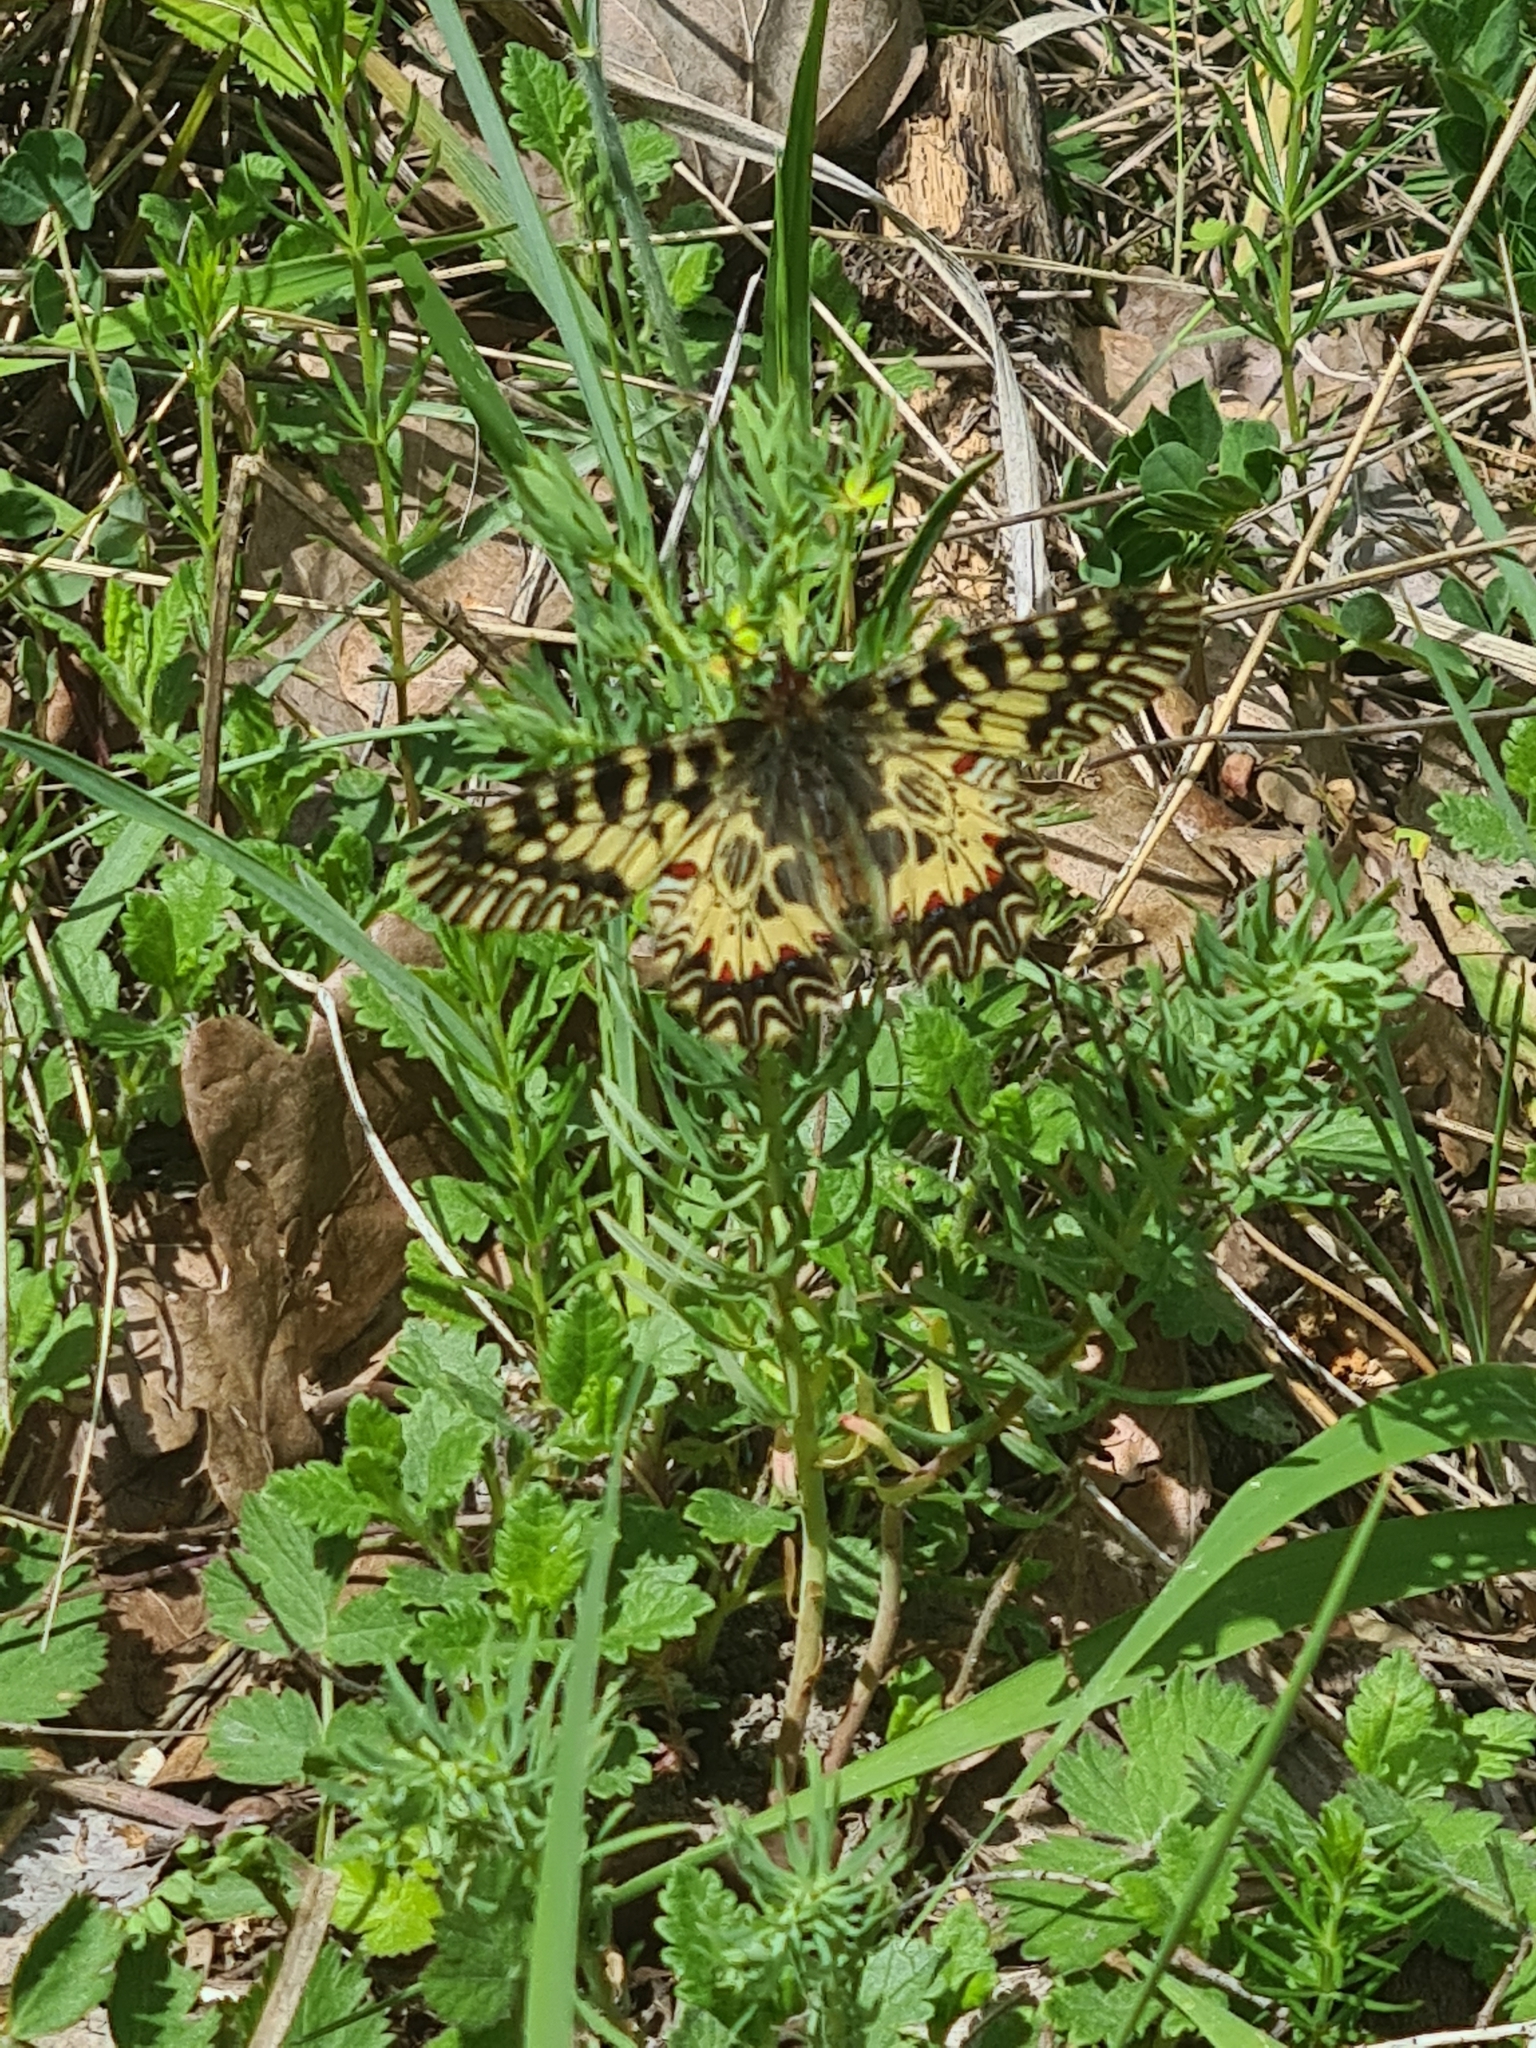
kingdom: Animalia
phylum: Arthropoda
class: Insecta
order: Lepidoptera
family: Papilionidae
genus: Zerynthia
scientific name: Zerynthia polyxena
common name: Southern festoon
